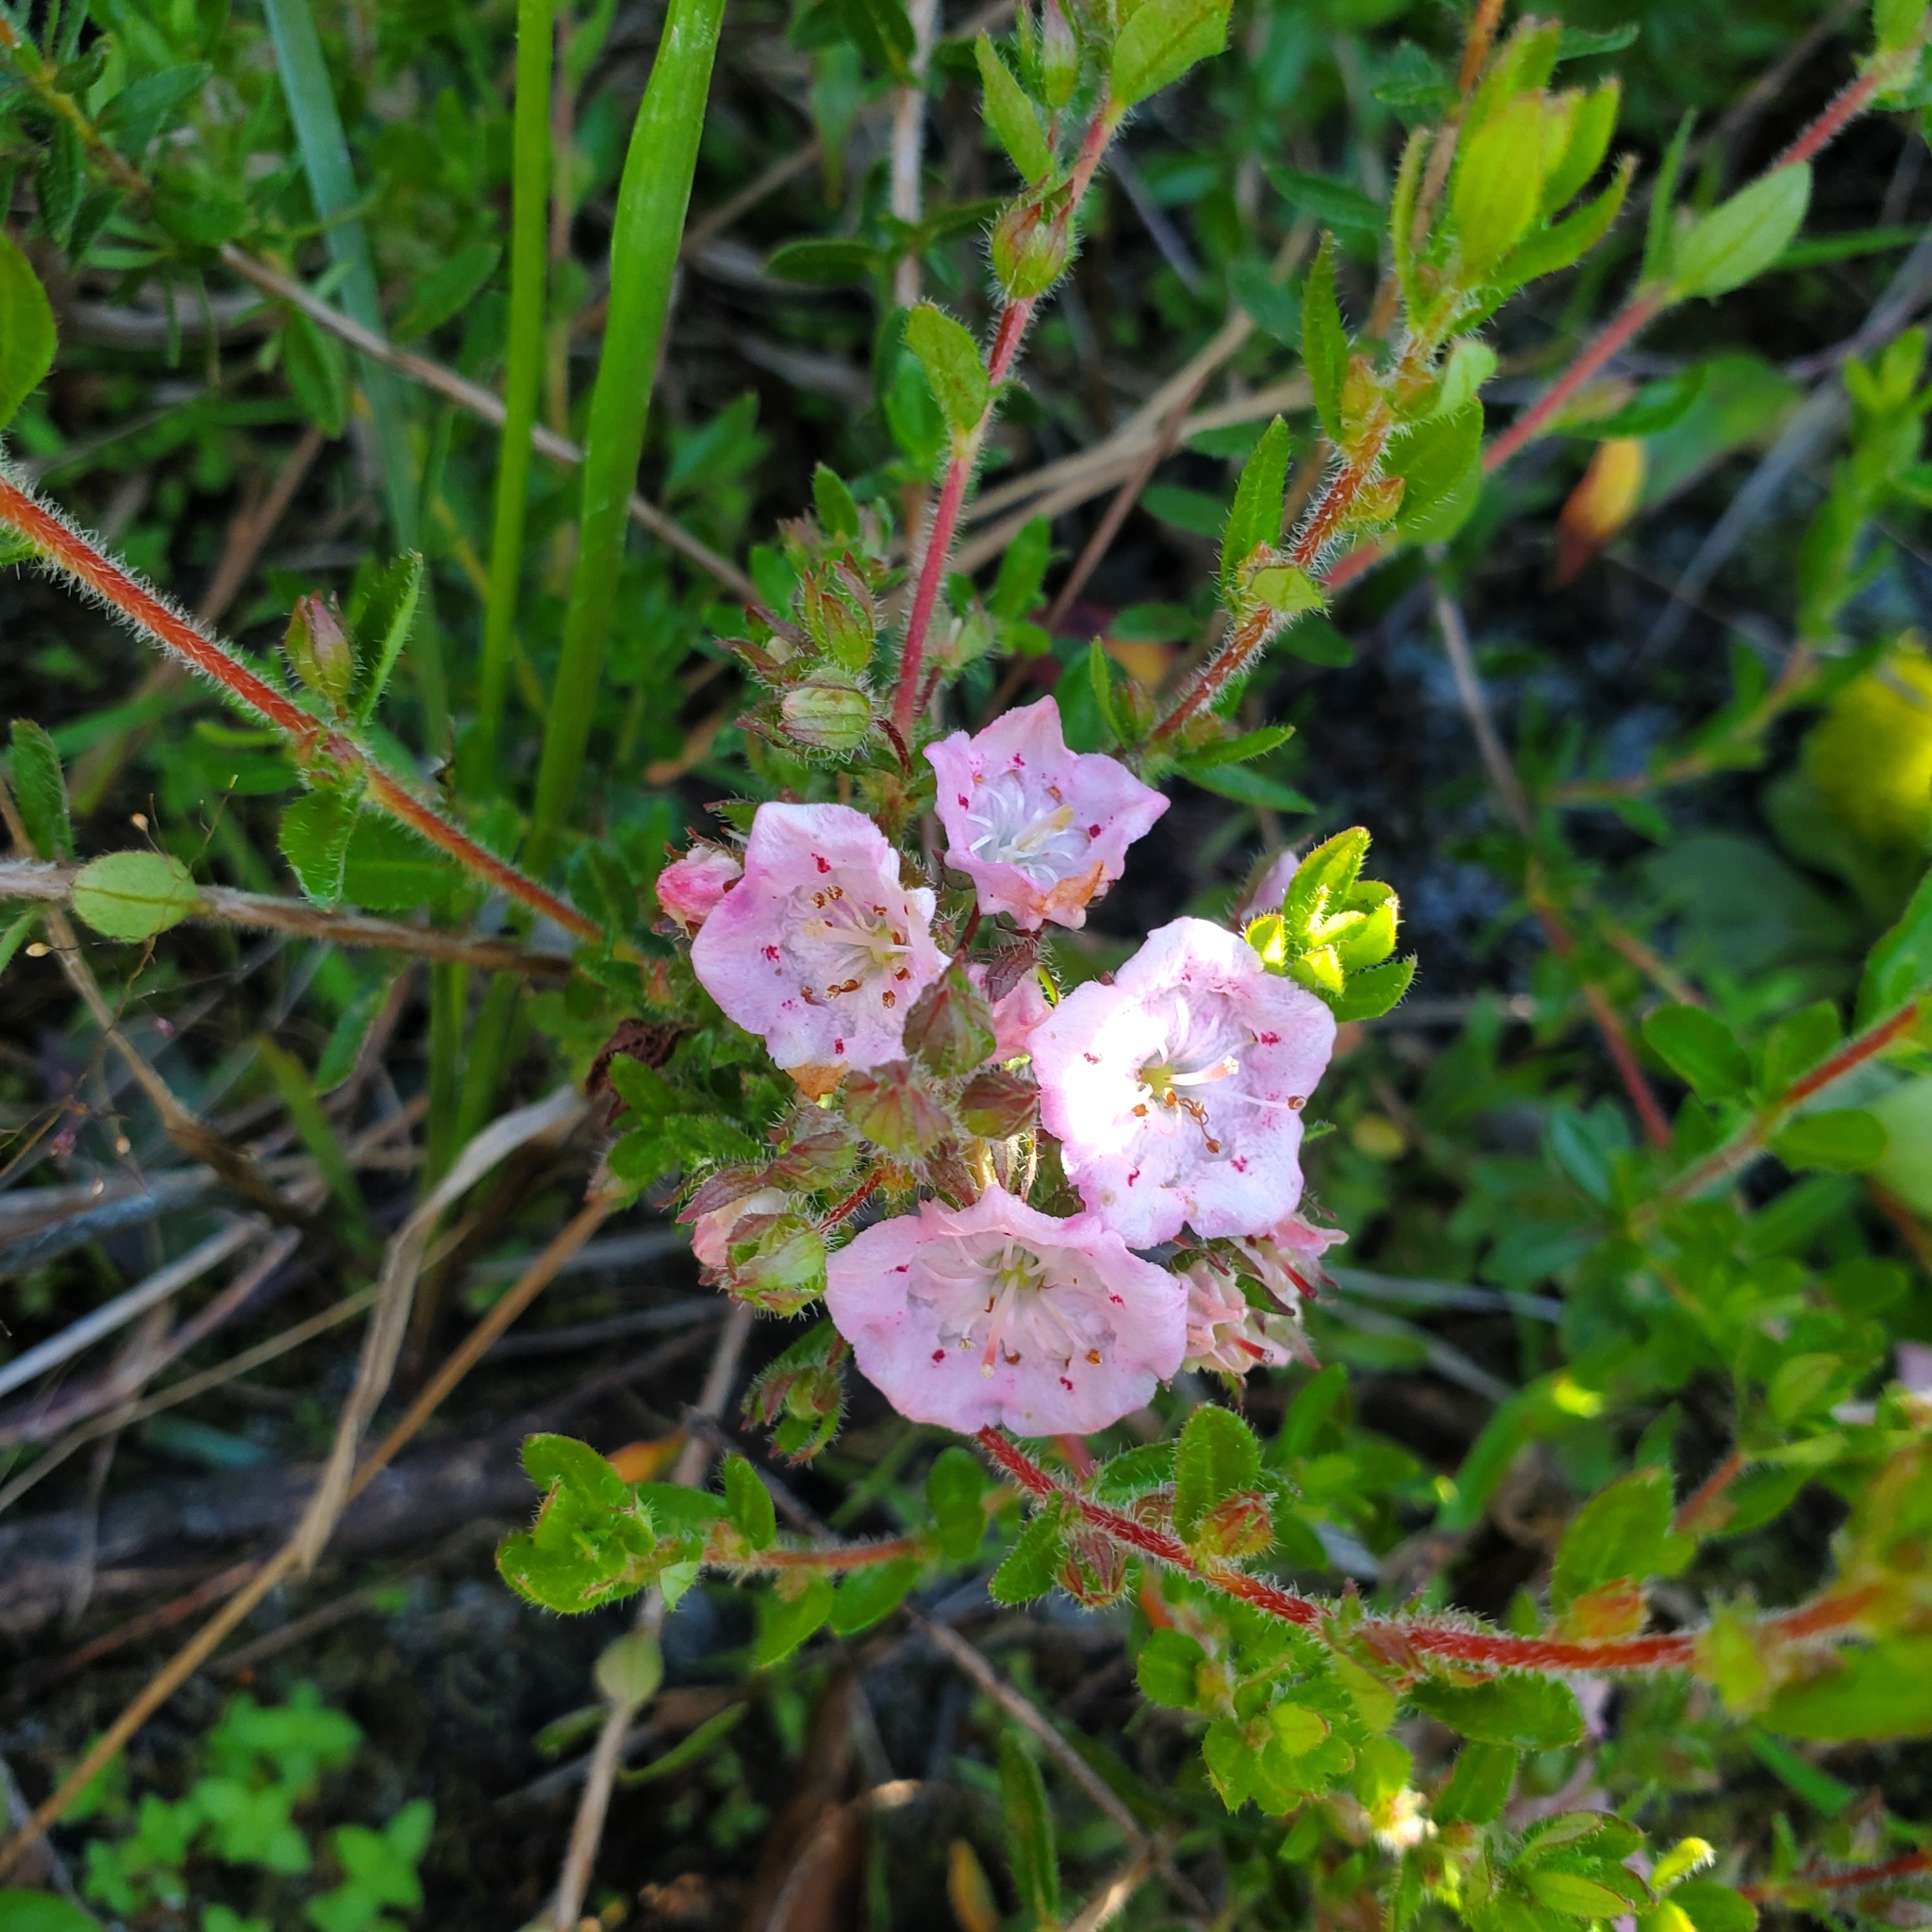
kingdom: Plantae
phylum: Tracheophyta
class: Magnoliopsida
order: Ericales
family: Ericaceae
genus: Kalmia
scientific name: Kalmia hirsuta
